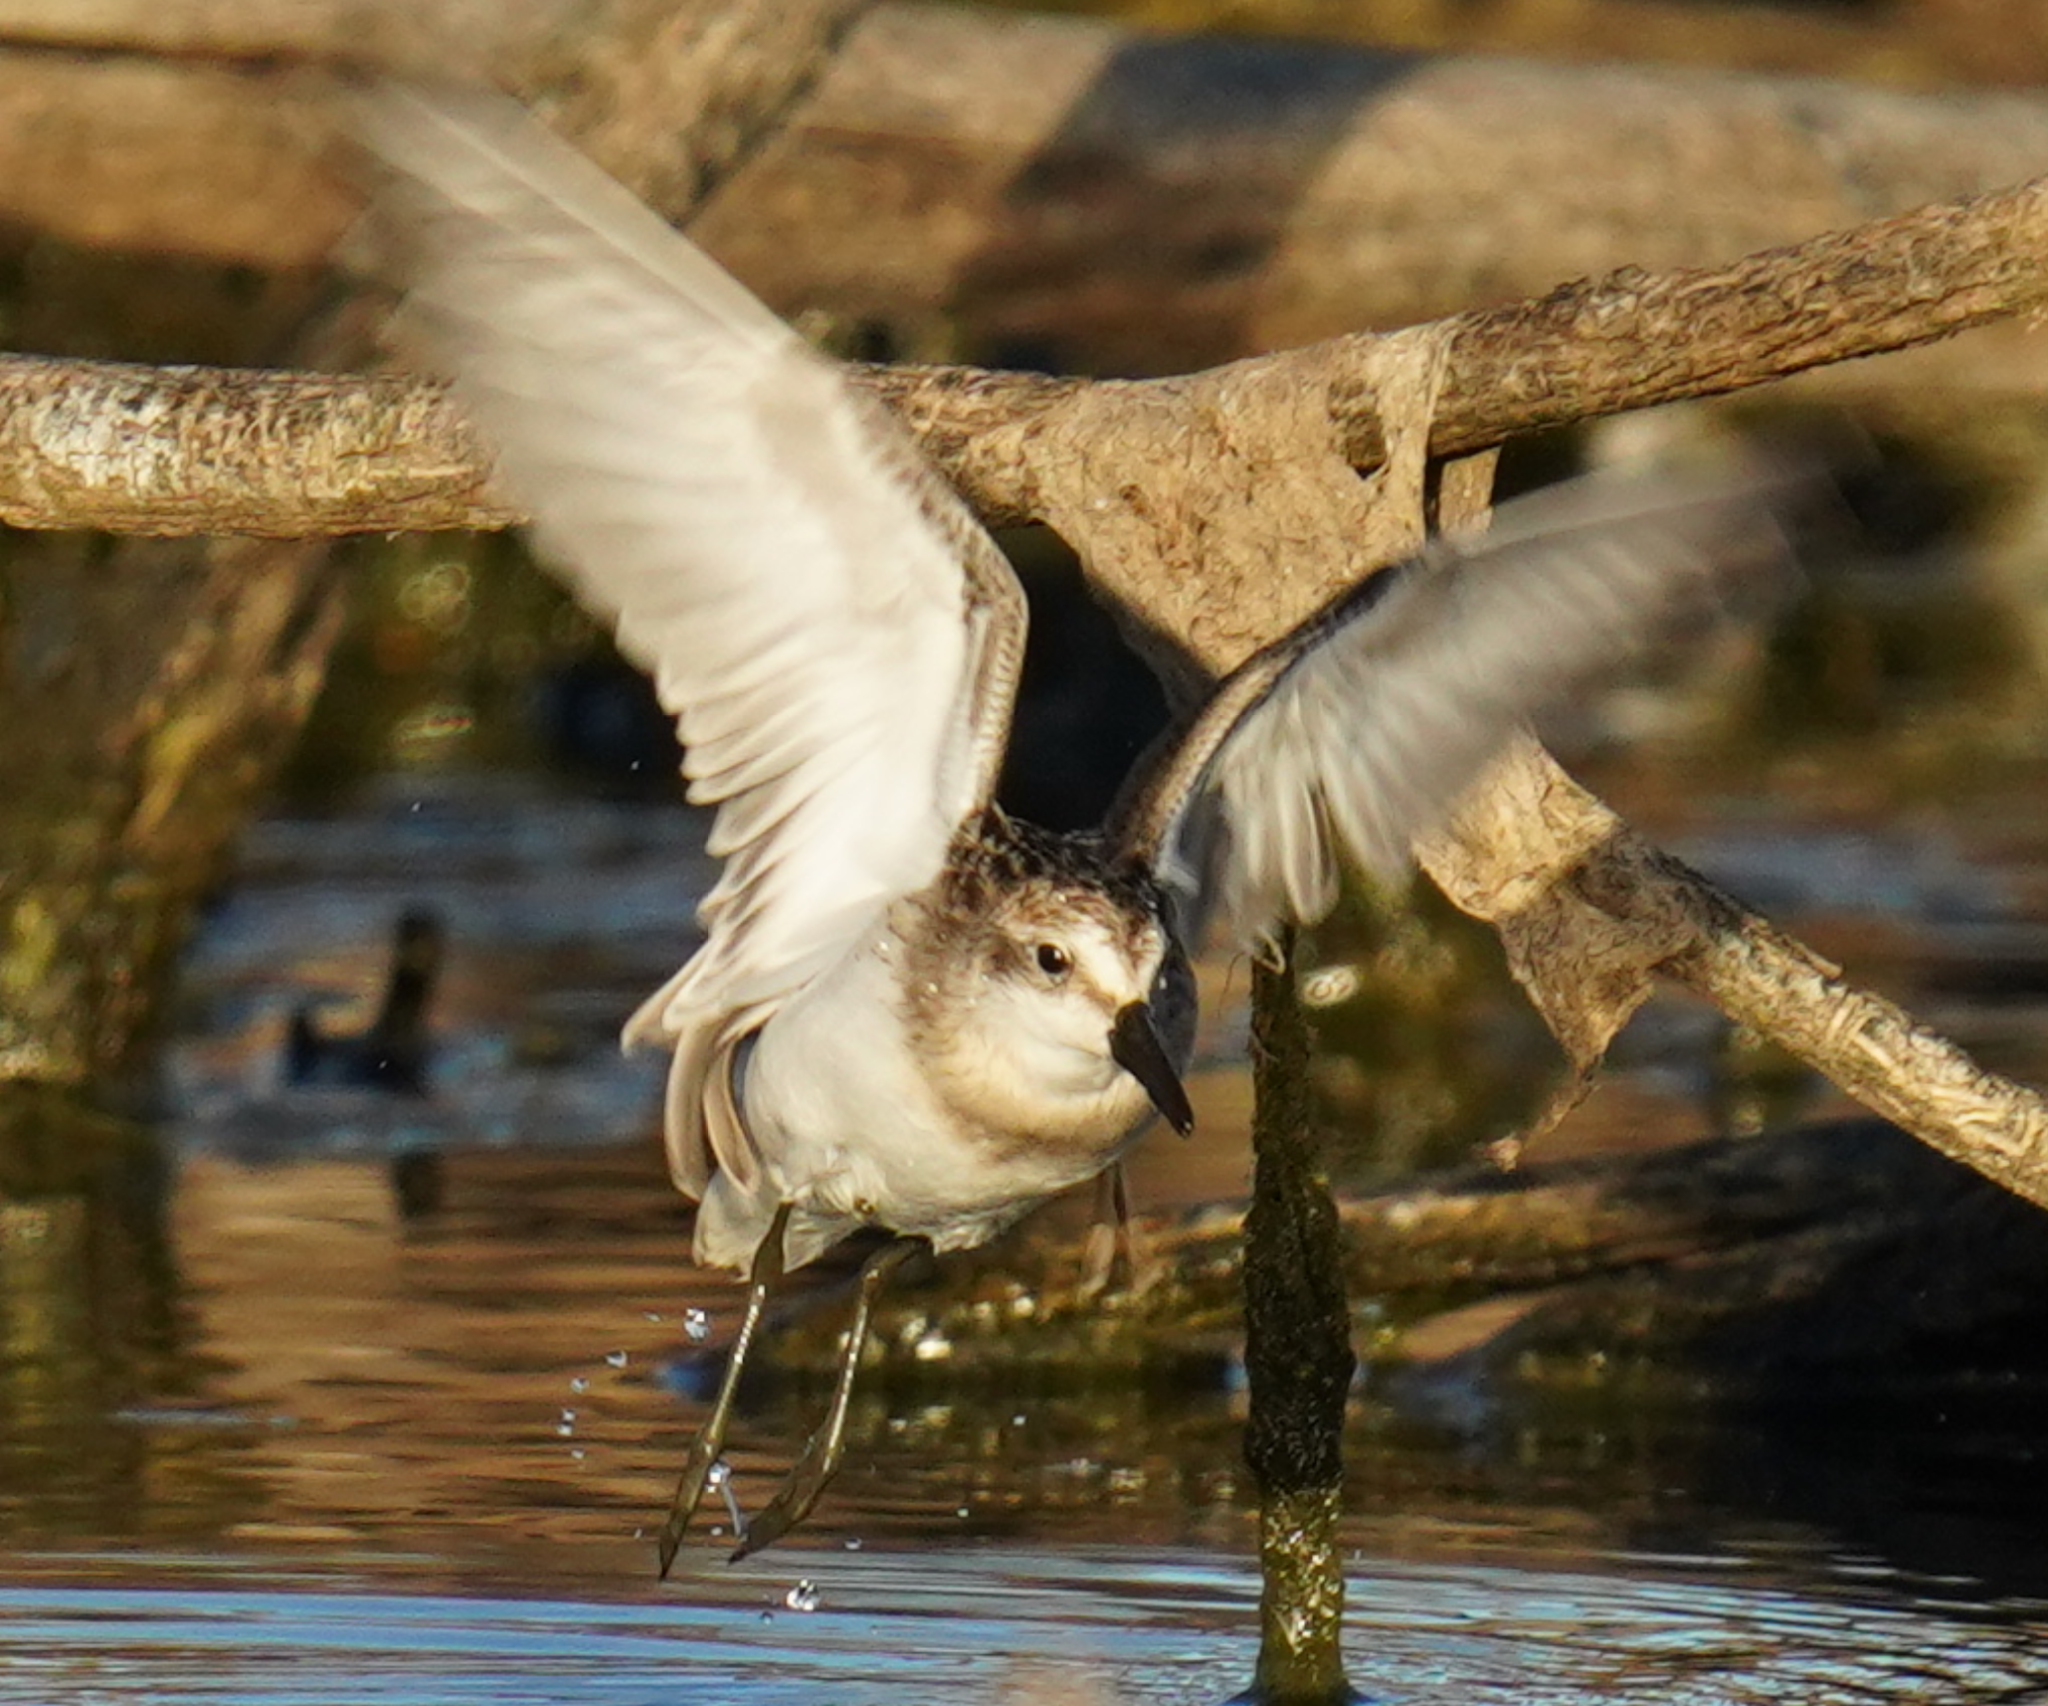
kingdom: Animalia
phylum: Chordata
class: Aves
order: Charadriiformes
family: Scolopacidae
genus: Calidris
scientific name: Calidris pusilla
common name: Semipalmated sandpiper
